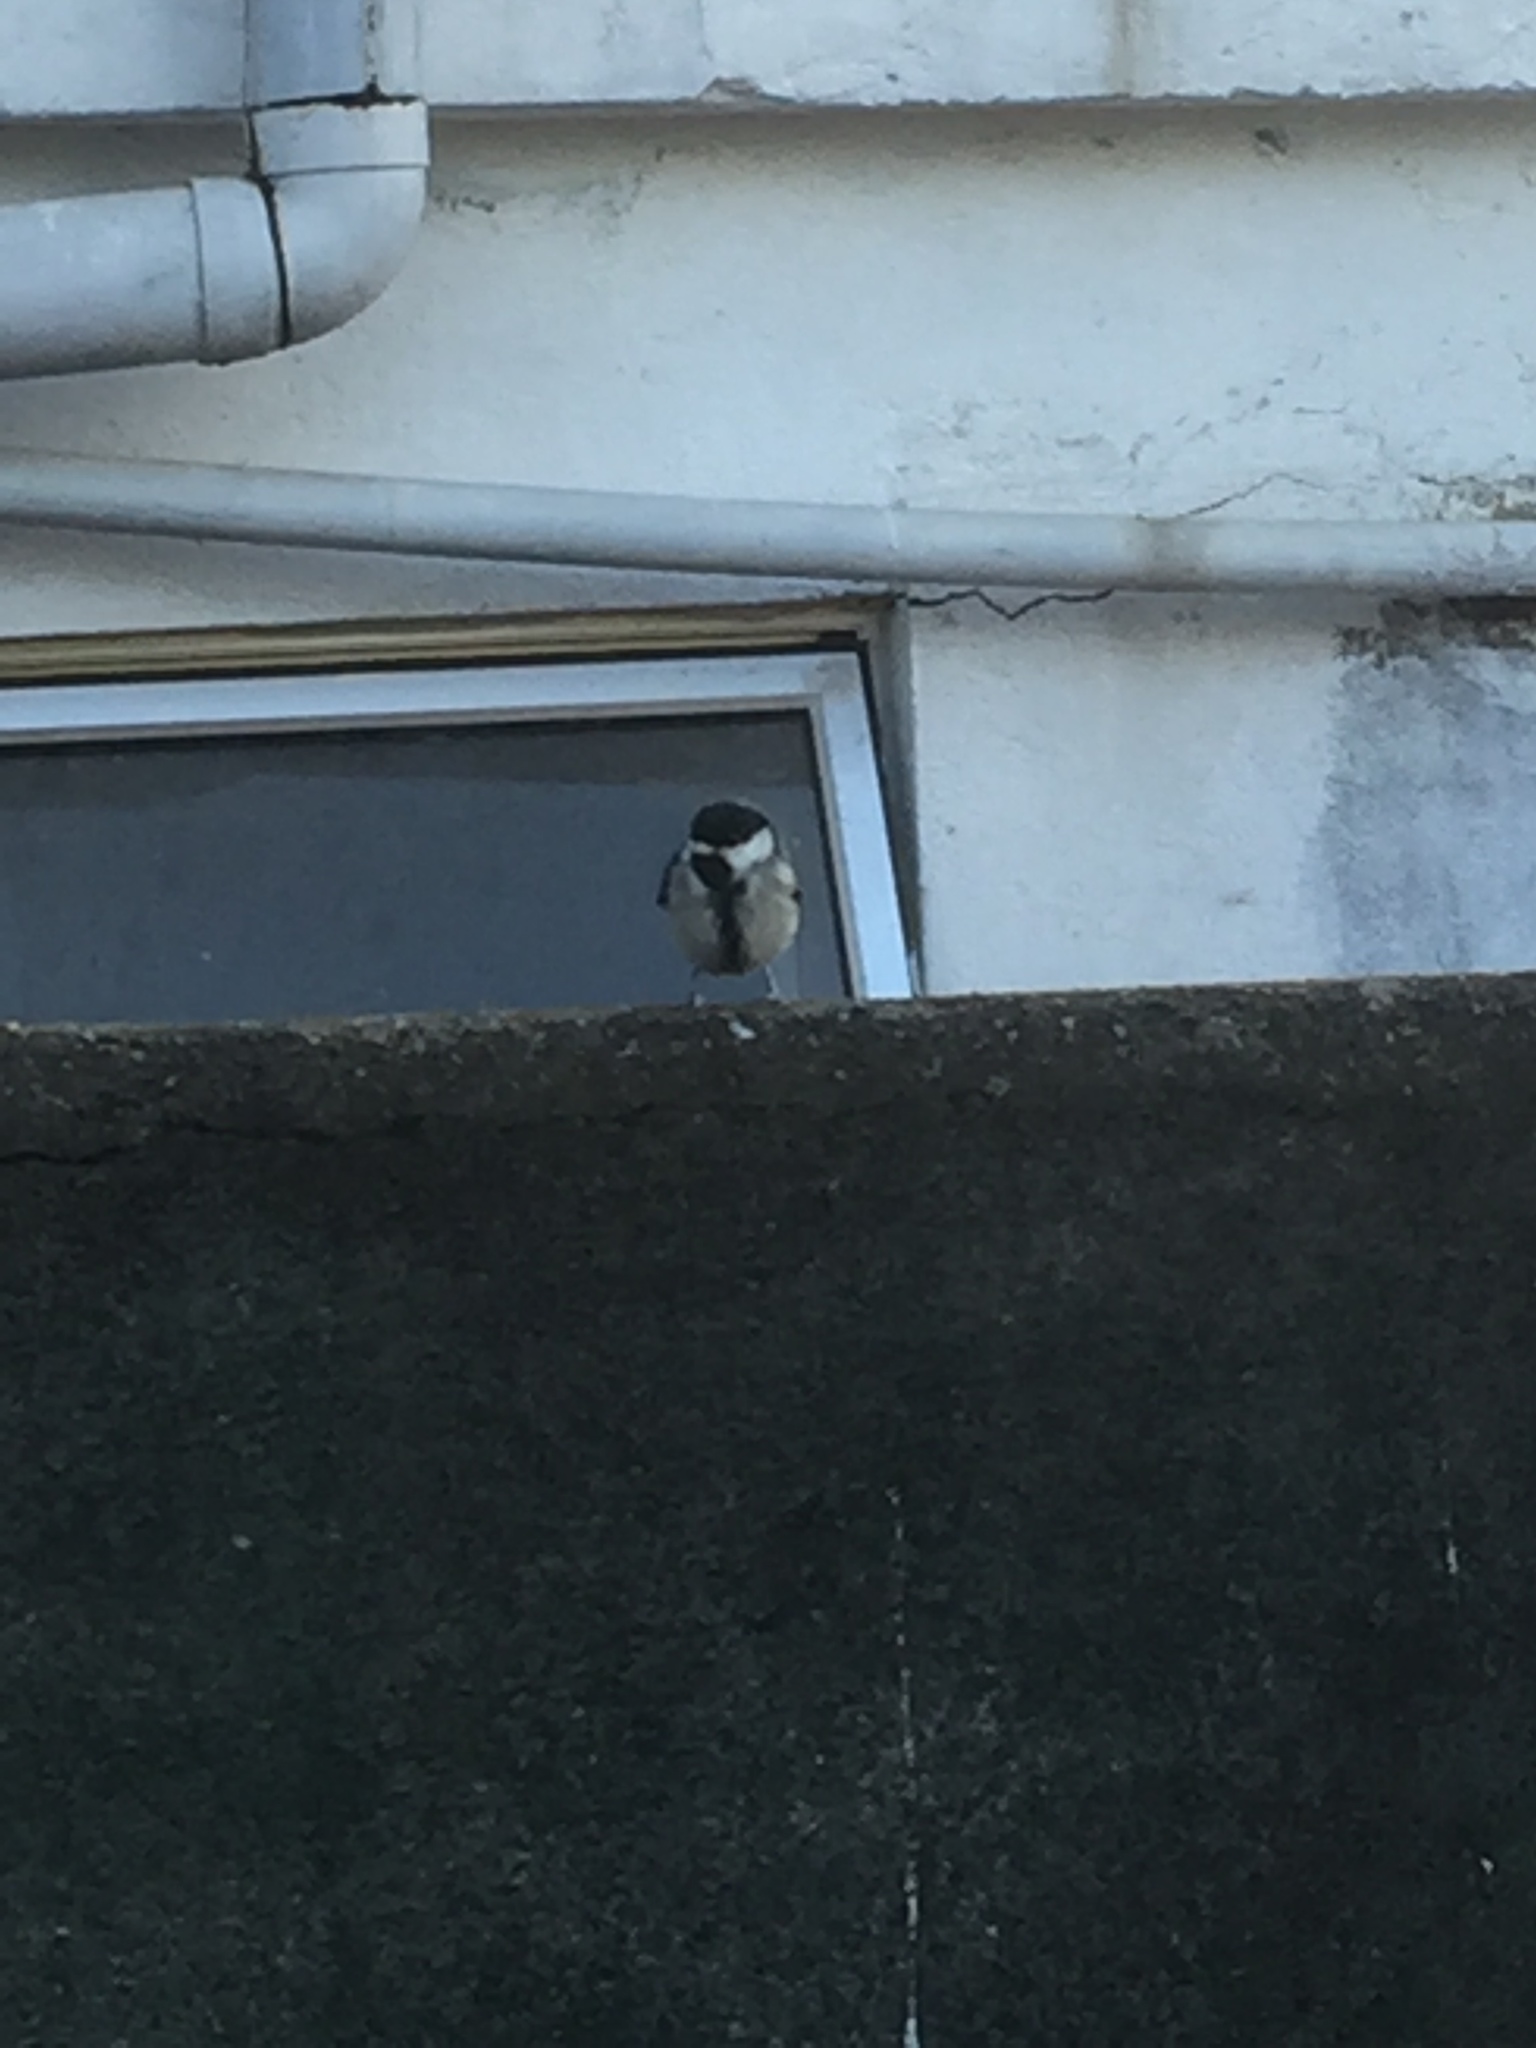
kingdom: Animalia
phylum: Chordata
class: Aves
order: Passeriformes
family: Paridae
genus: Parus
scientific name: Parus cinereus
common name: Cinereous tit
